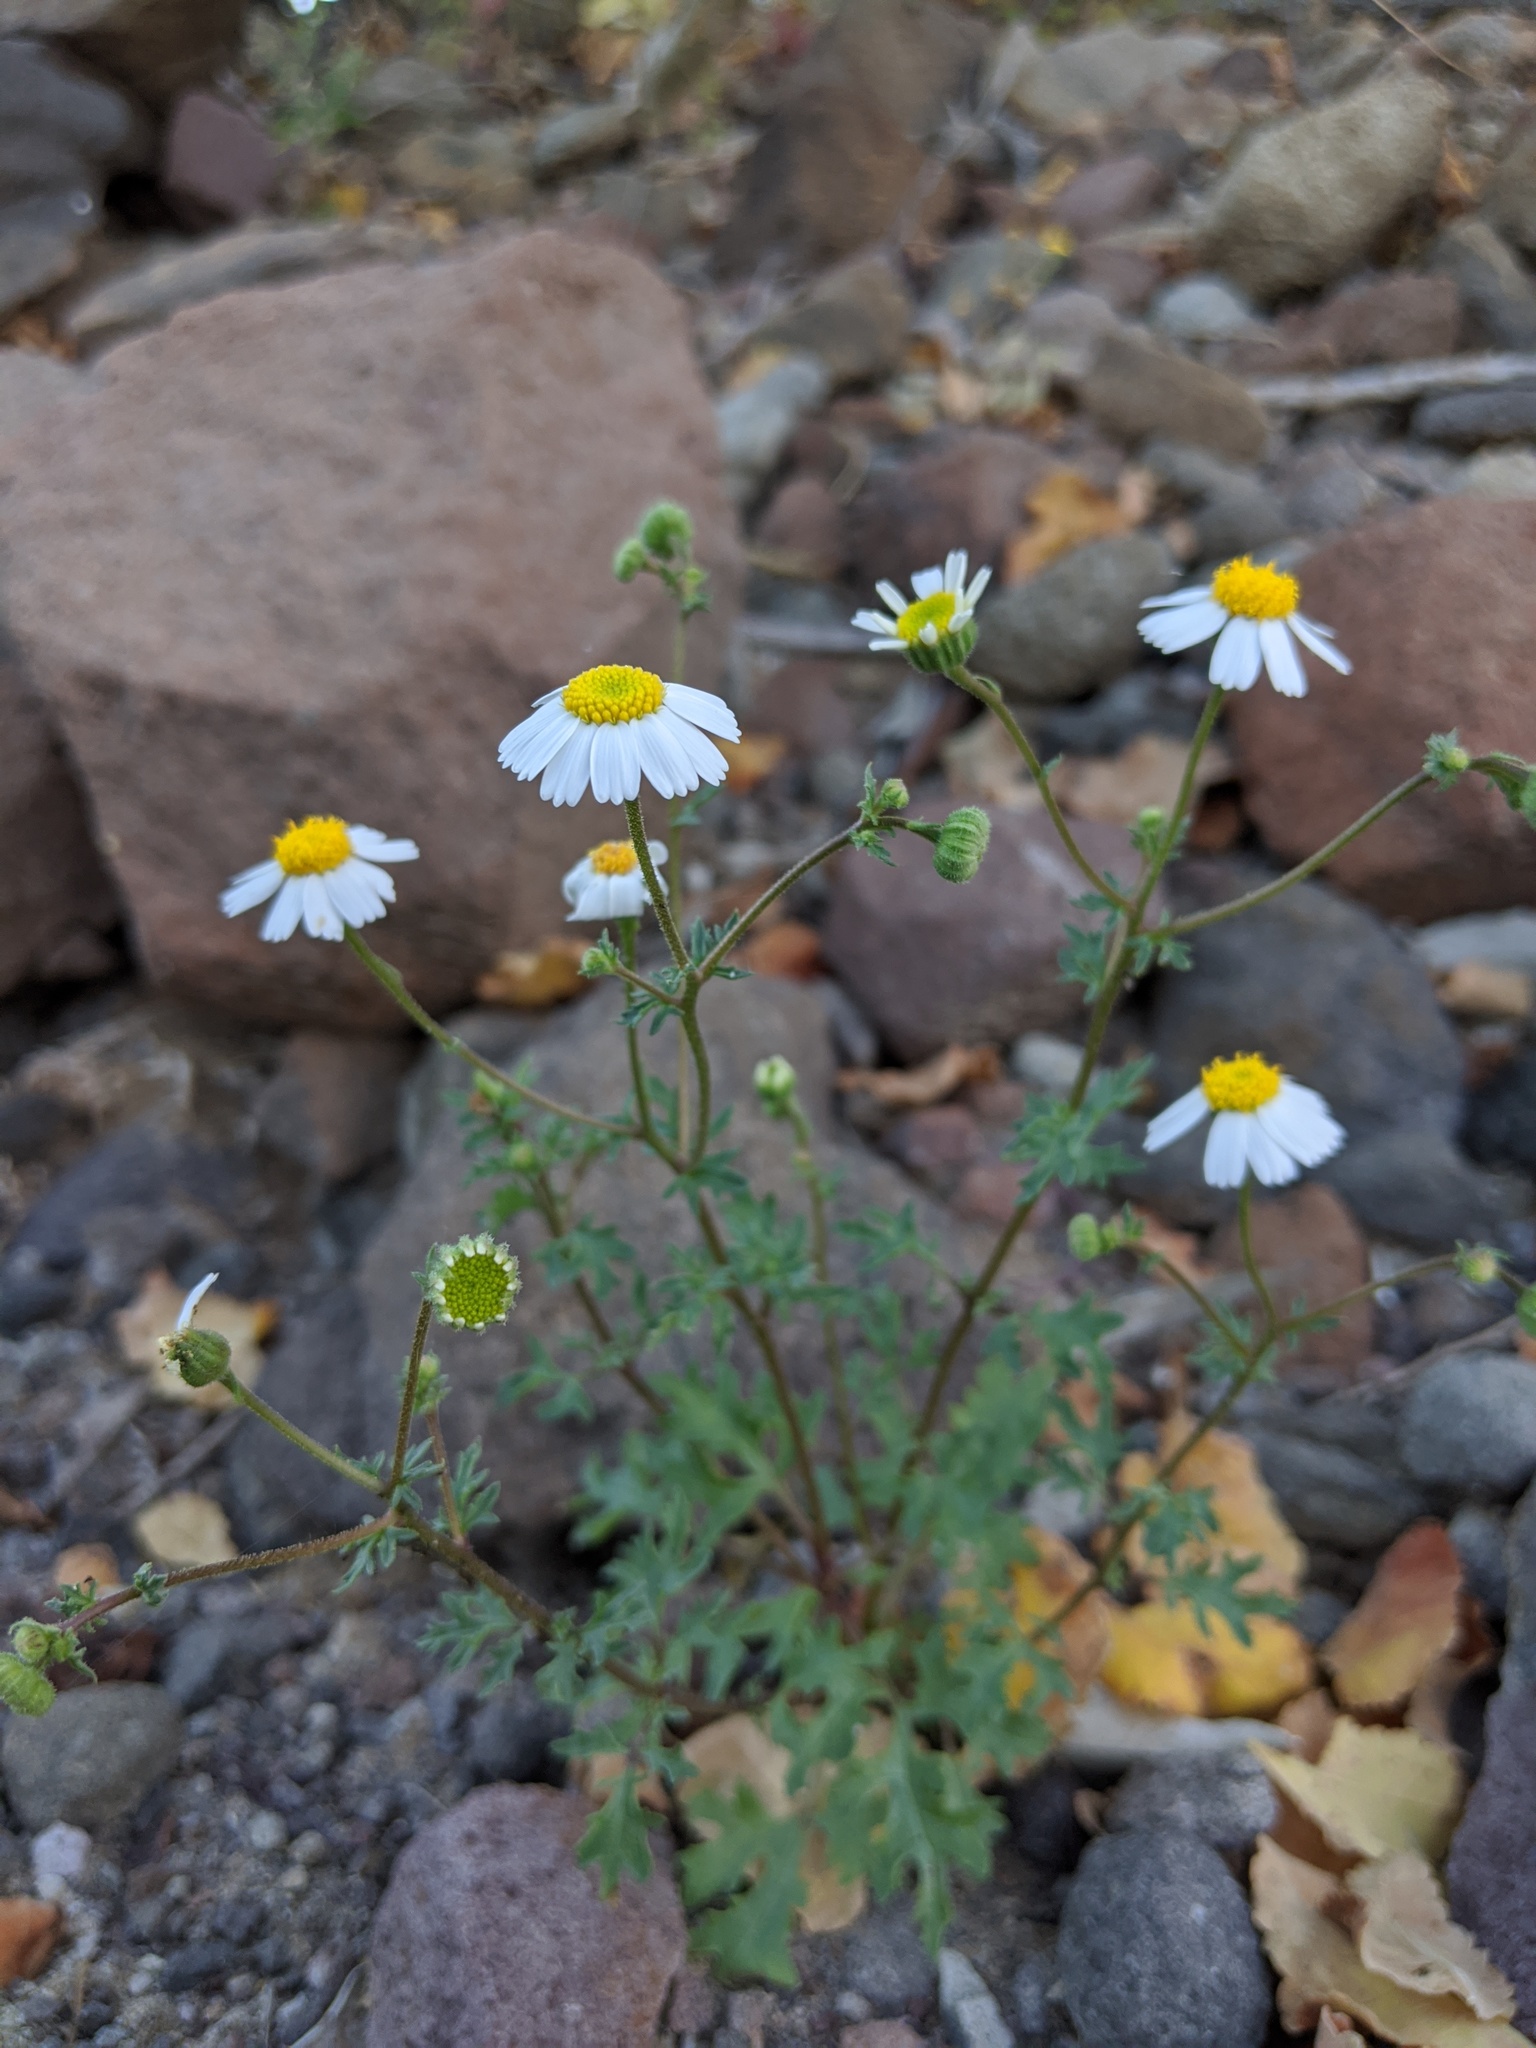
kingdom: Plantae
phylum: Tracheophyta
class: Magnoliopsida
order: Asterales
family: Asteraceae
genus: Perityle
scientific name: Perityle crassifolia
